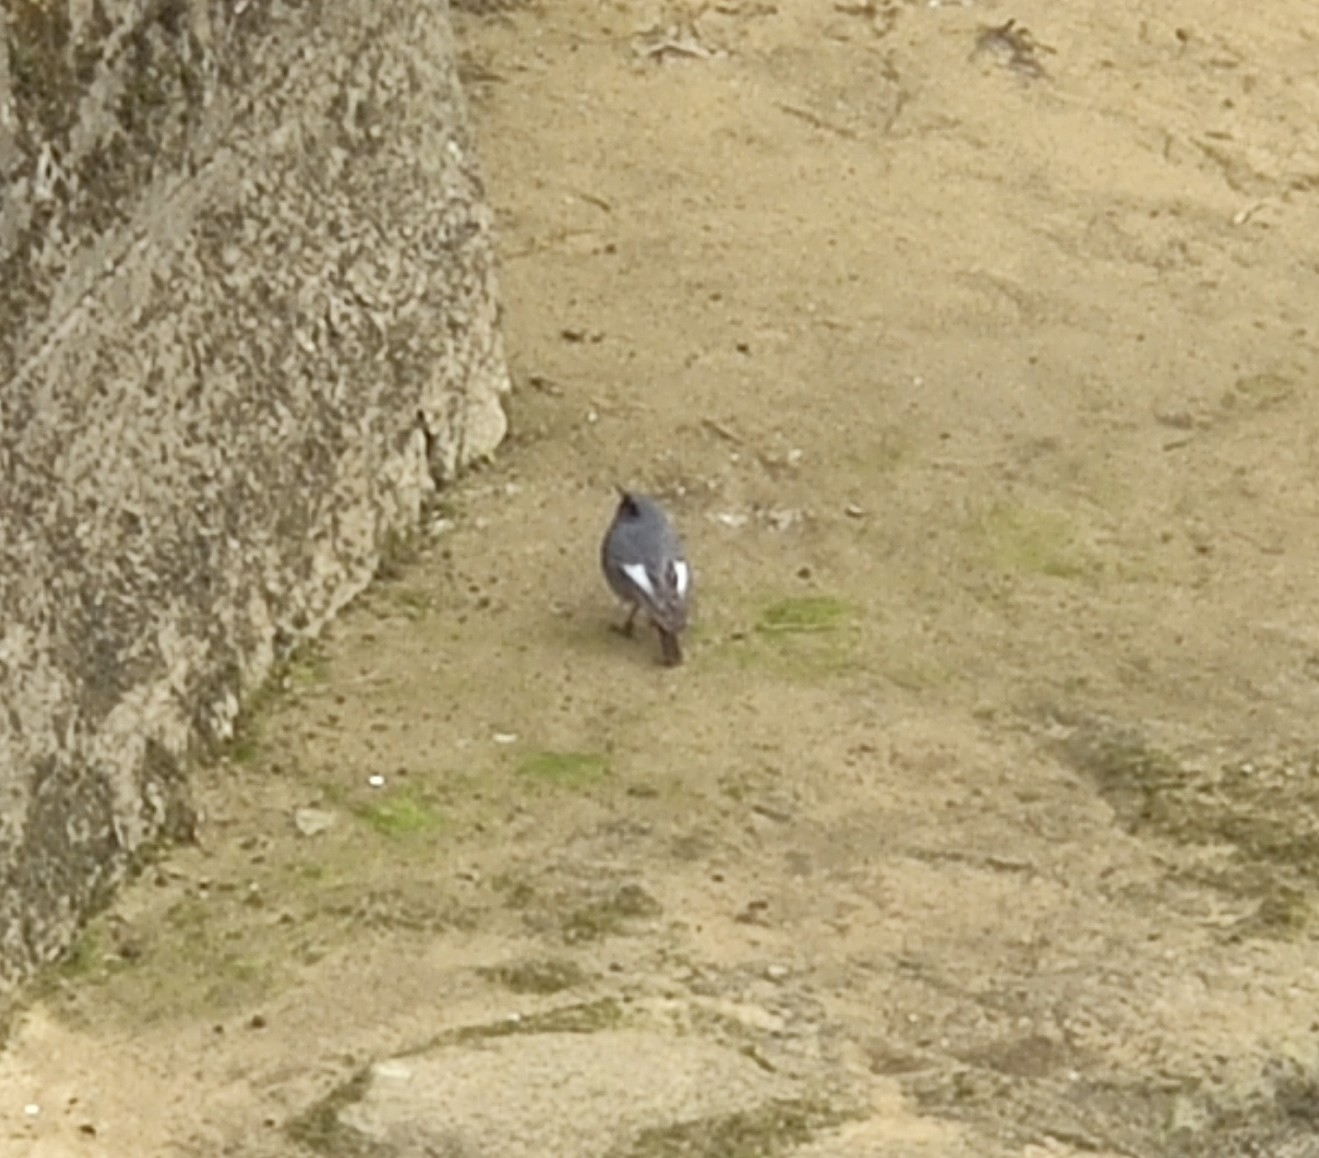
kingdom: Animalia
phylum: Chordata
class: Aves
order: Passeriformes
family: Muscicapidae
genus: Phoenicurus
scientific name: Phoenicurus ochruros
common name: Black redstart
